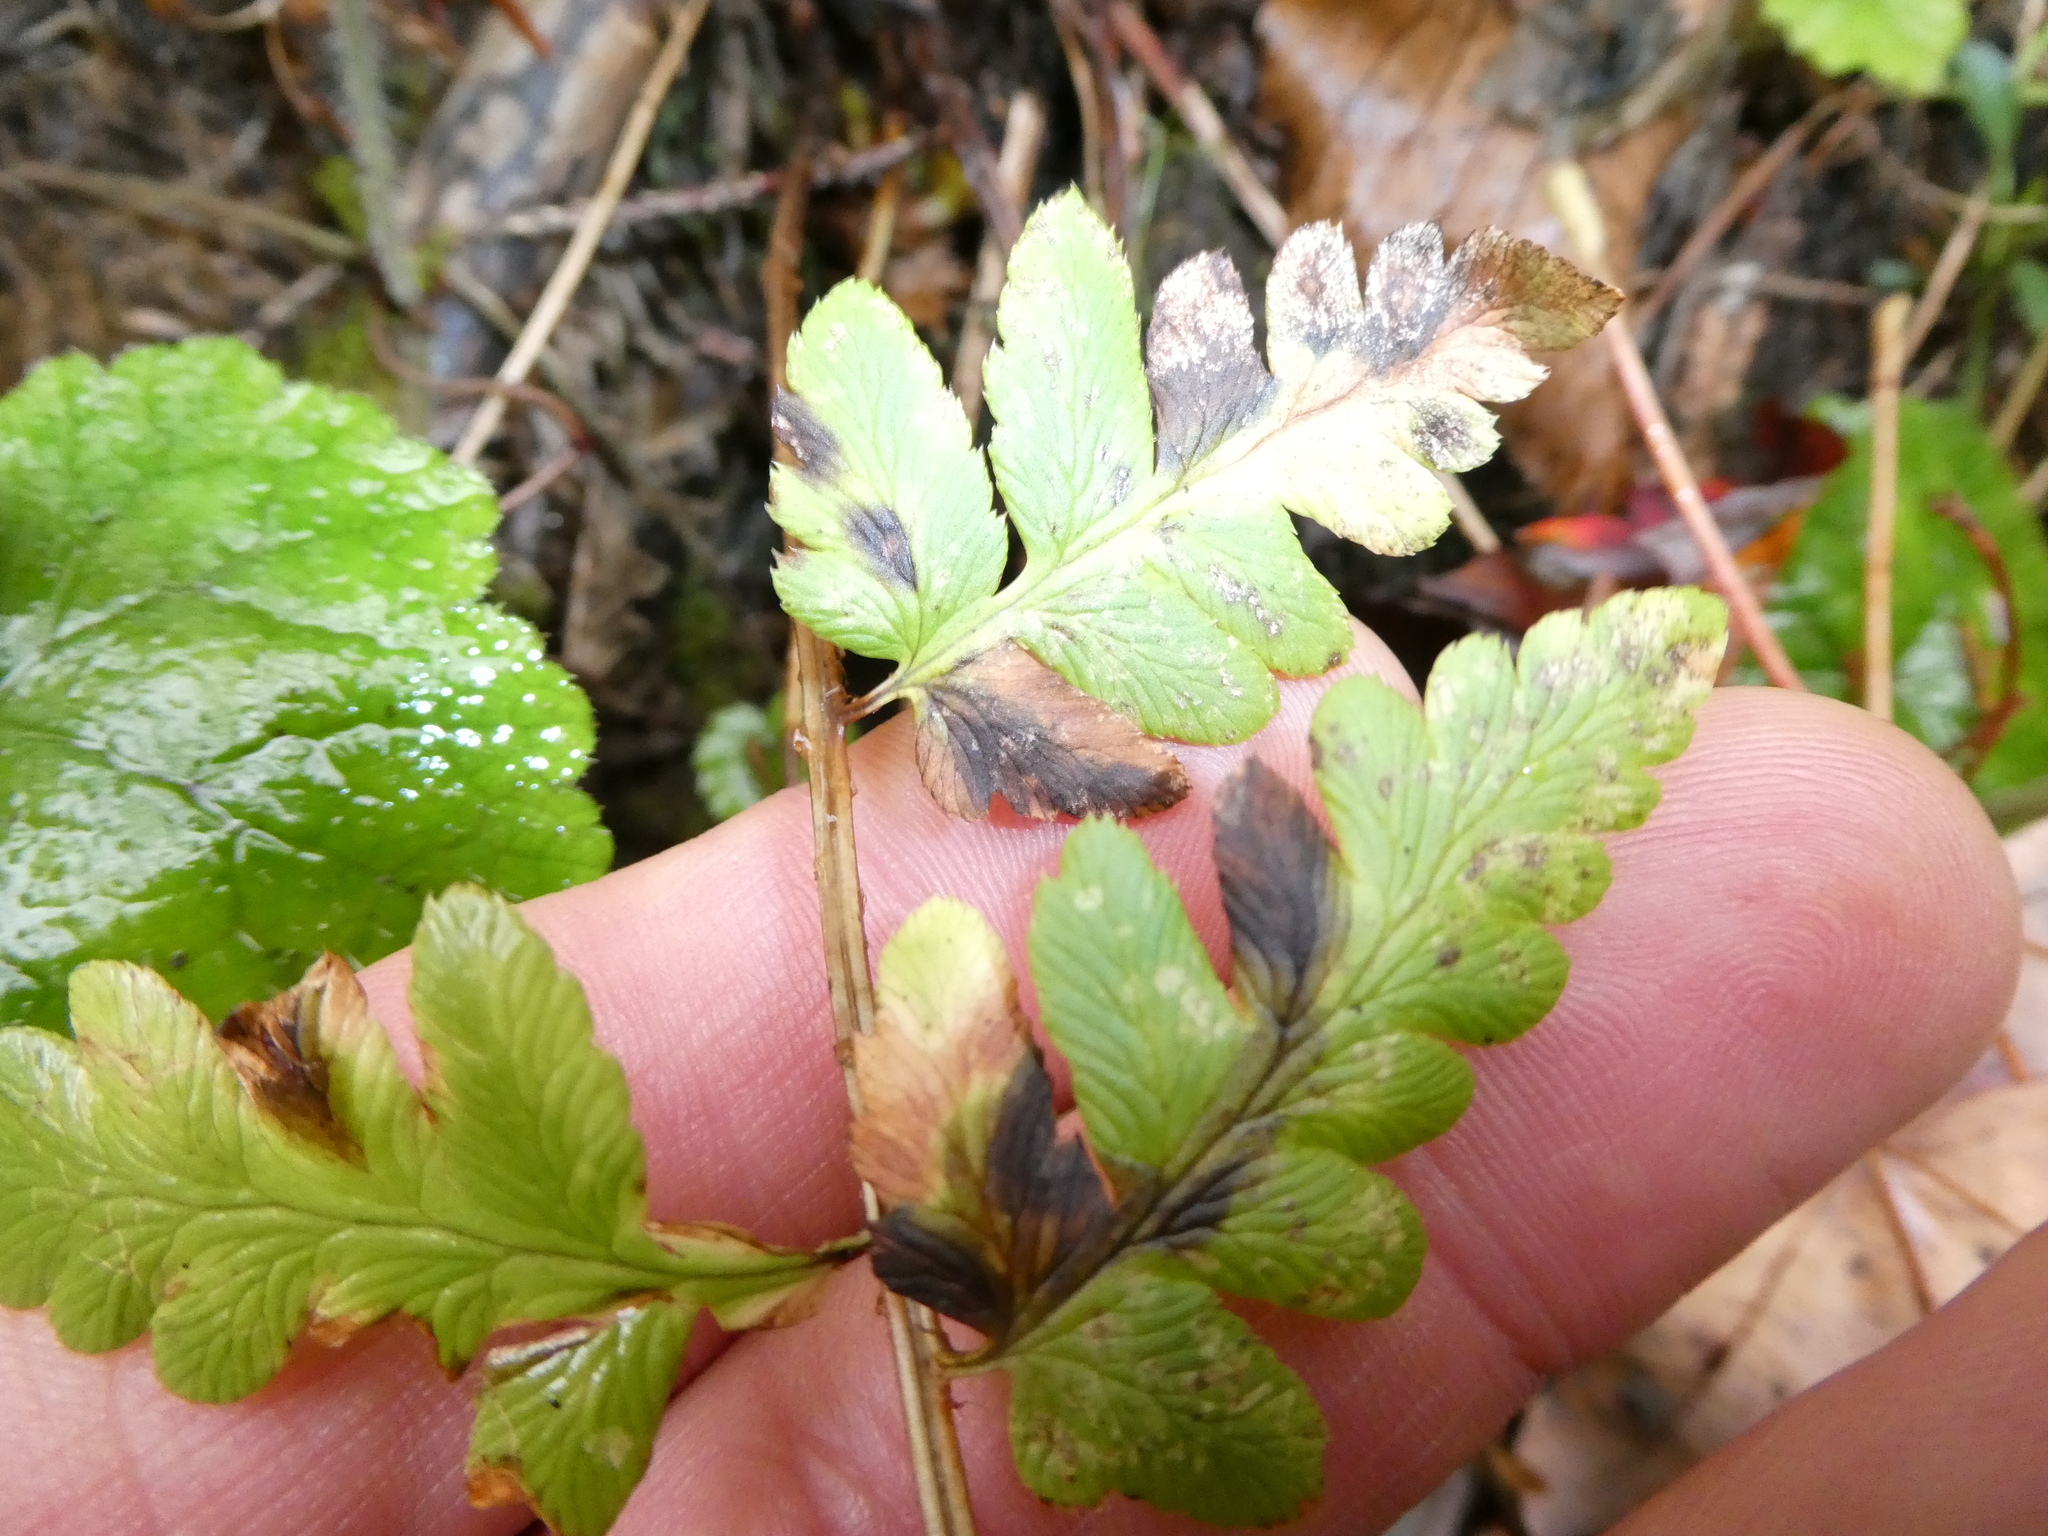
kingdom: Plantae
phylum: Tracheophyta
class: Polypodiopsida
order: Polypodiales
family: Dryopteridaceae
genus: Dryopteris
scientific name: Dryopteris cristata
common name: Crested wood fern
